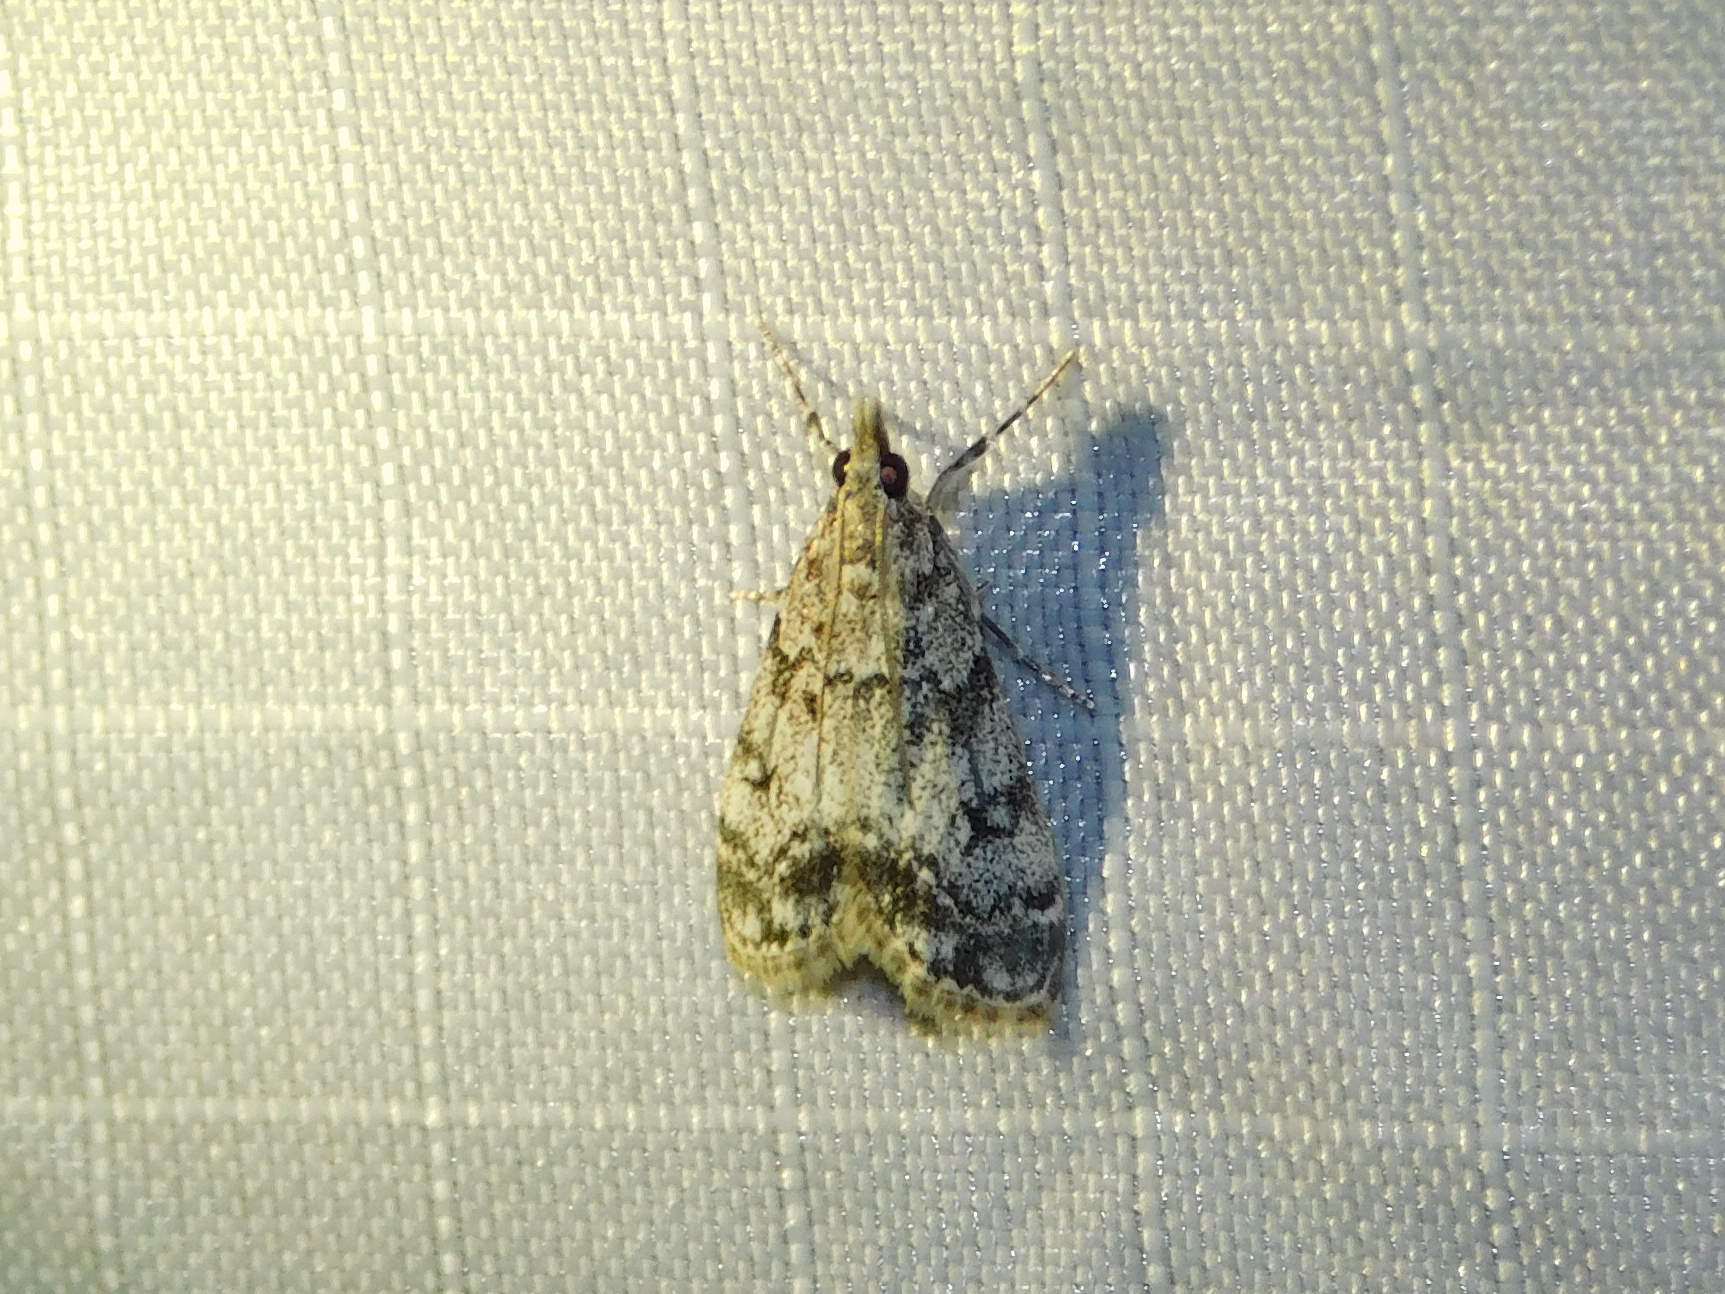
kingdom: Animalia
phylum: Arthropoda
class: Insecta
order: Lepidoptera
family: Crambidae
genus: Eudonia
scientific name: Eudonia lacustrata
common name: Little grey
